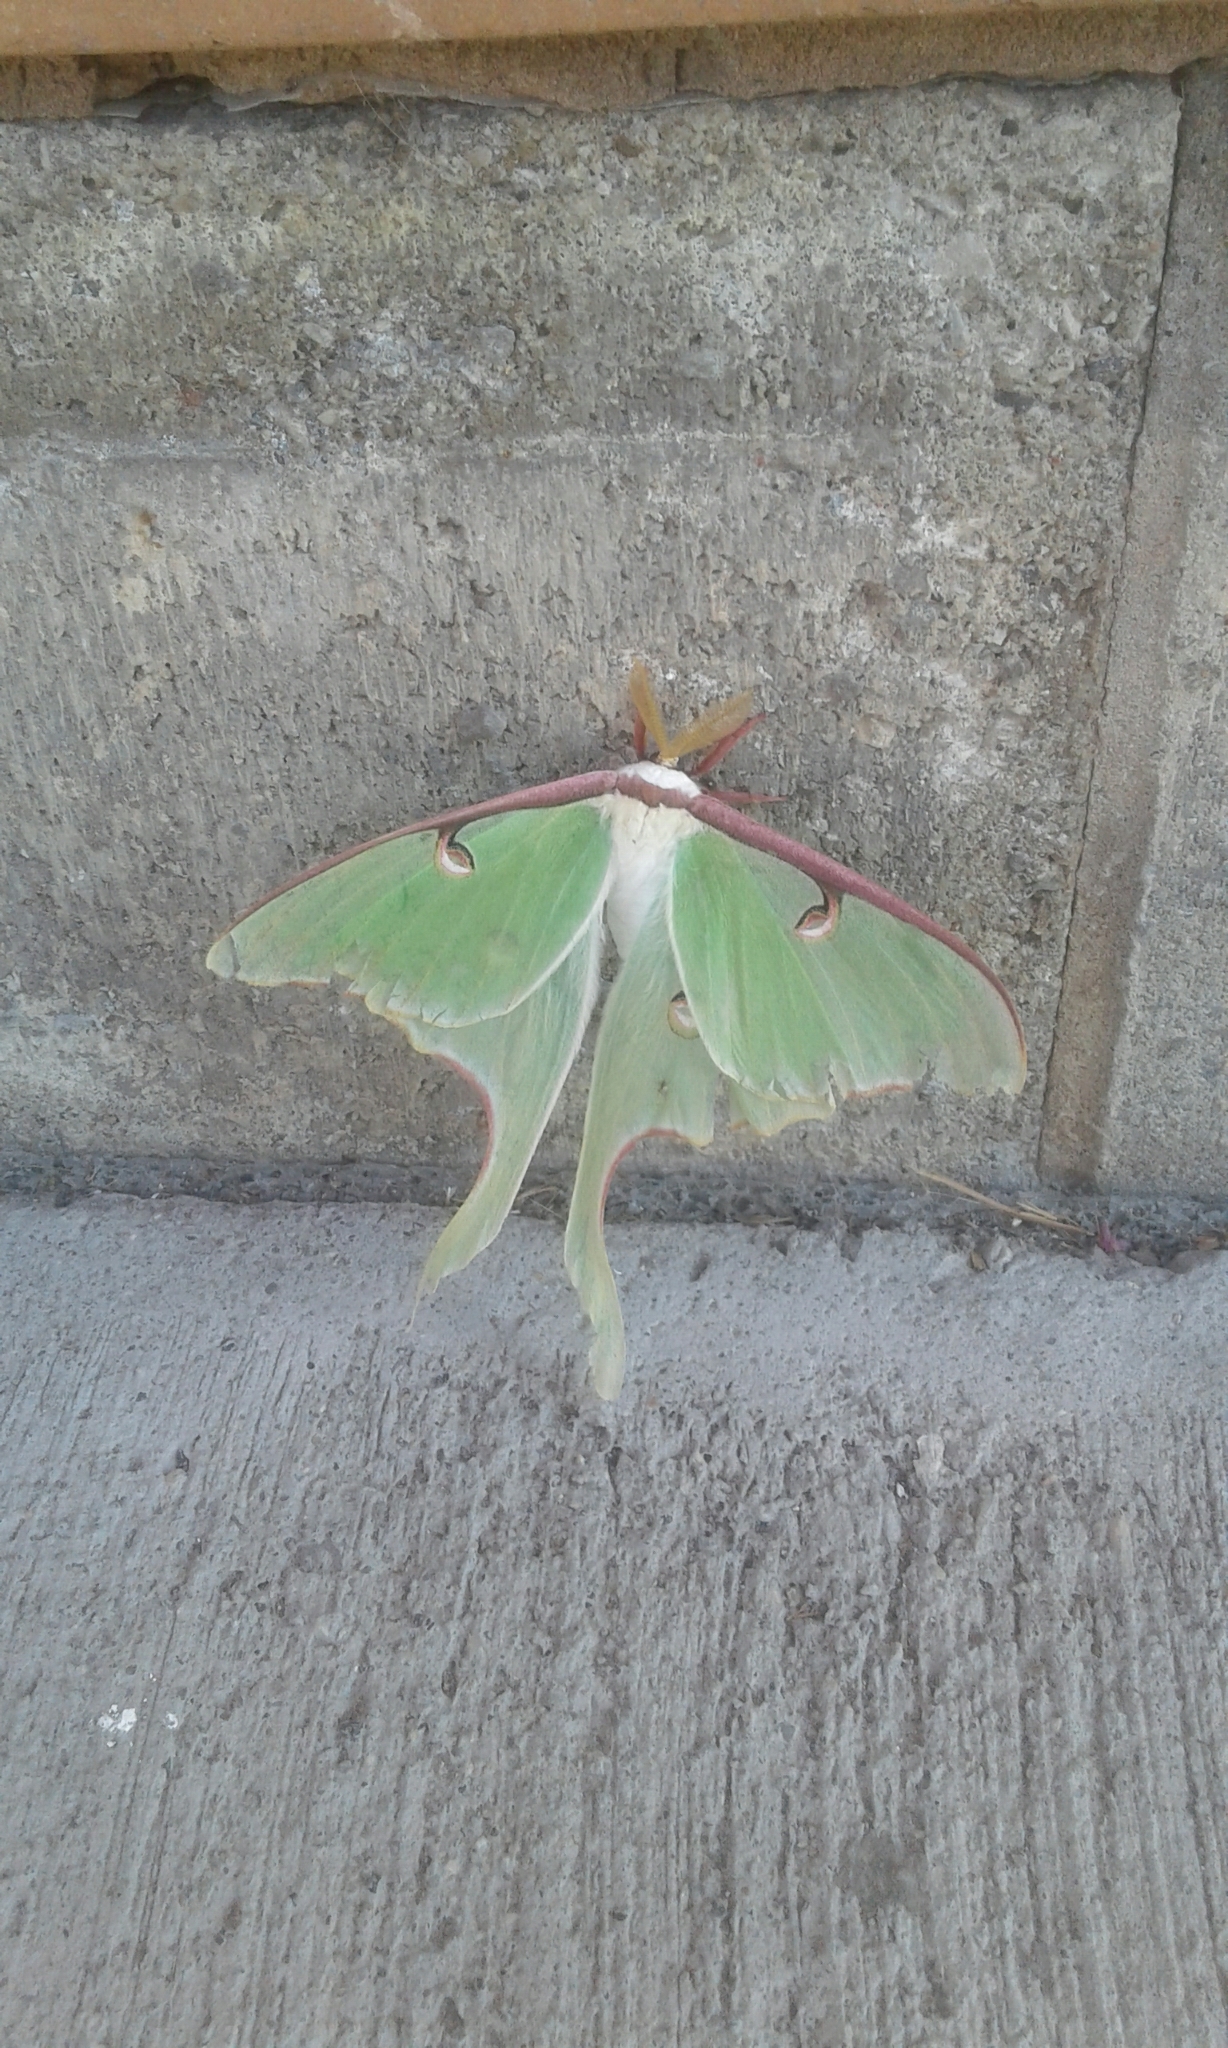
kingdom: Animalia
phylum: Arthropoda
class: Insecta
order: Lepidoptera
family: Saturniidae
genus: Actias
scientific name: Actias luna
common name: Luna moth
